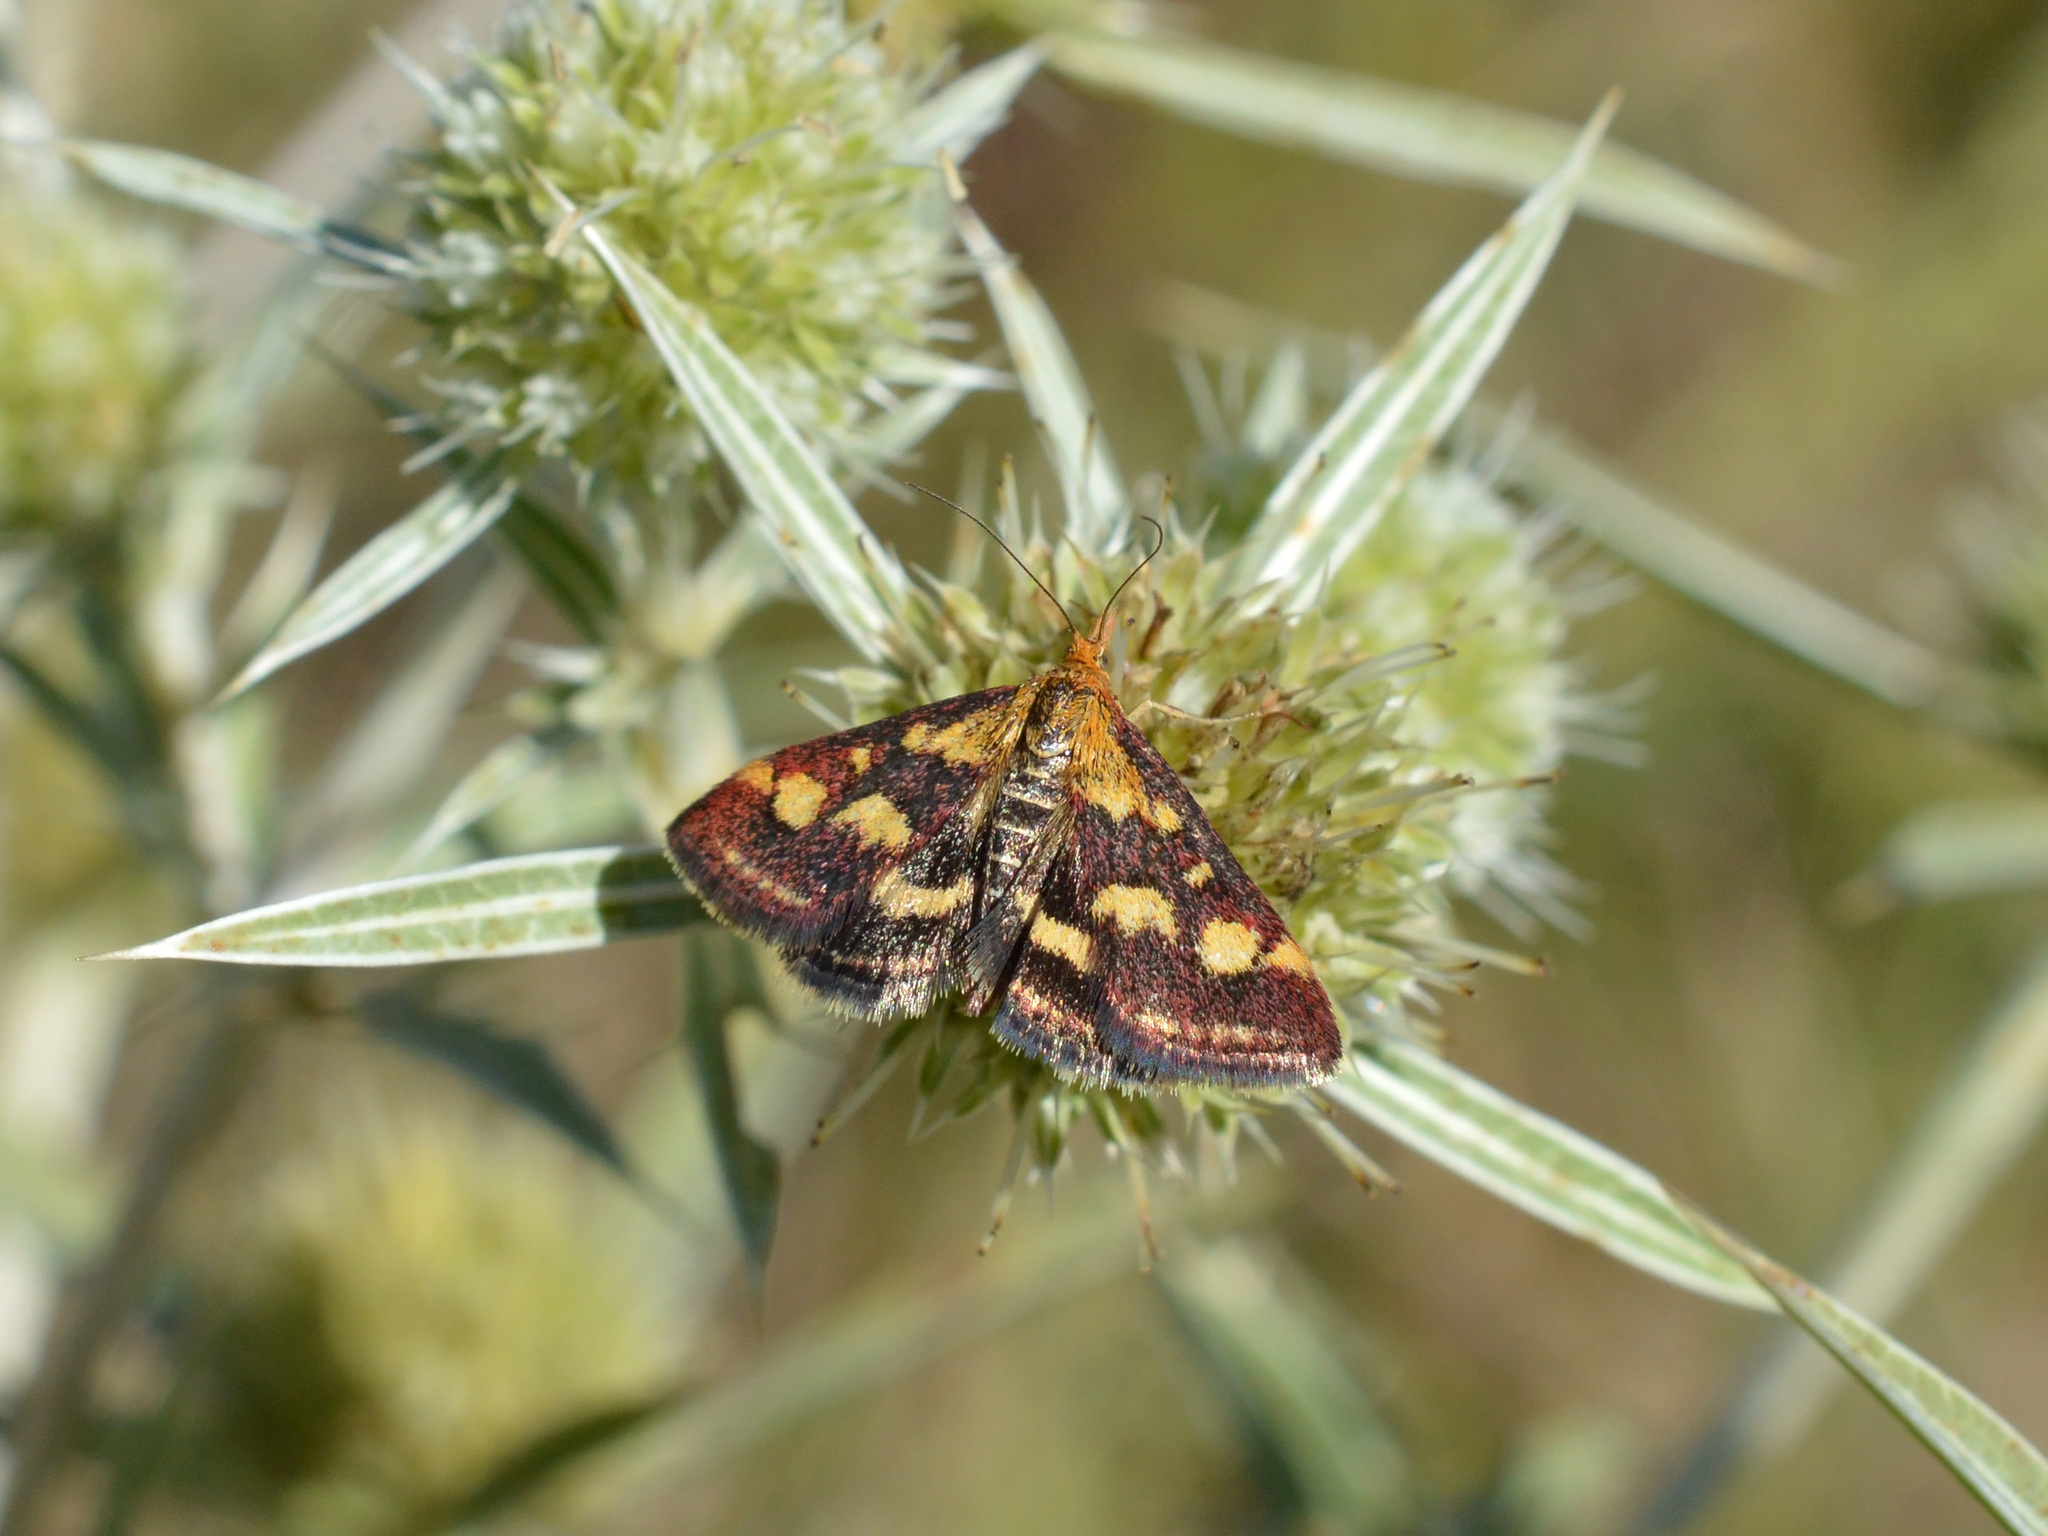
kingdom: Animalia
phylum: Arthropoda
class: Insecta
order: Lepidoptera
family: Crambidae
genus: Pyrausta
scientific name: Pyrausta purpuralis
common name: Common purple & gold
